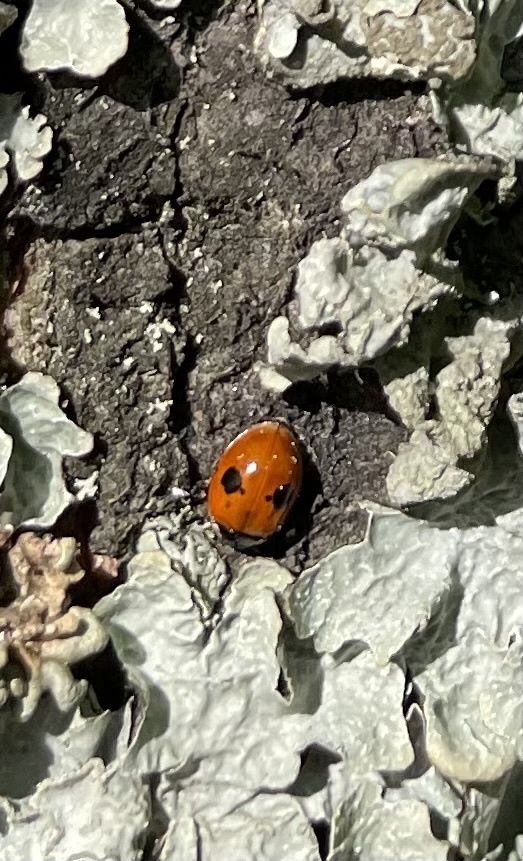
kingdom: Animalia
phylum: Arthropoda
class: Insecta
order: Coleoptera
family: Coccinellidae
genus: Adalia
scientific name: Adalia bipunctata
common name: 2-spot ladybird
